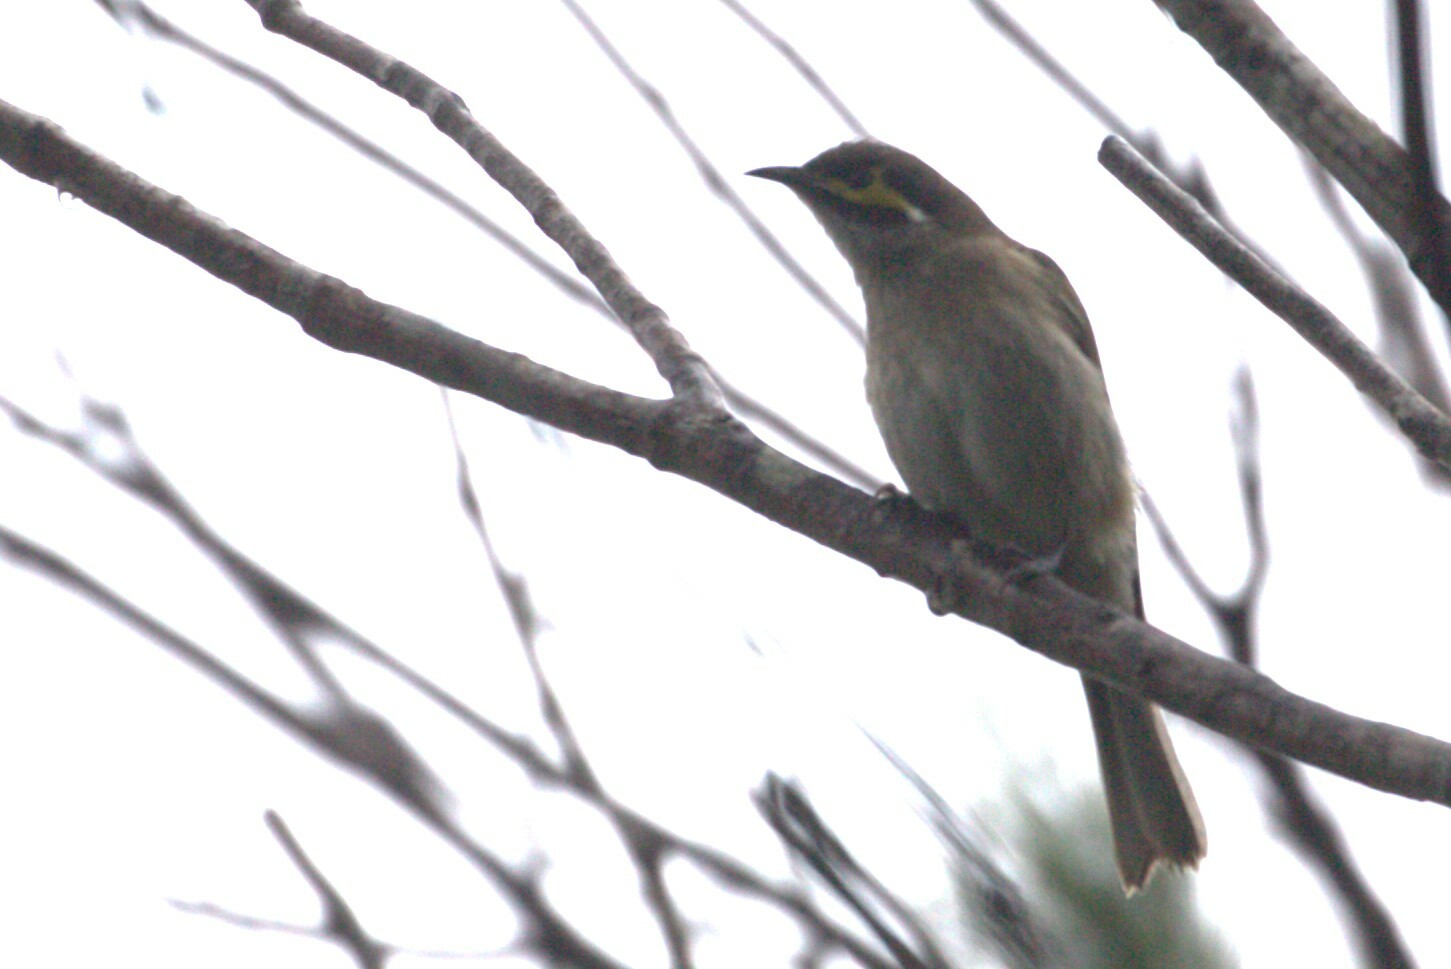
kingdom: Animalia
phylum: Chordata
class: Aves
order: Passeriformes
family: Meliphagidae
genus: Caligavis
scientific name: Caligavis chrysops
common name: Yellow-faced honeyeater
